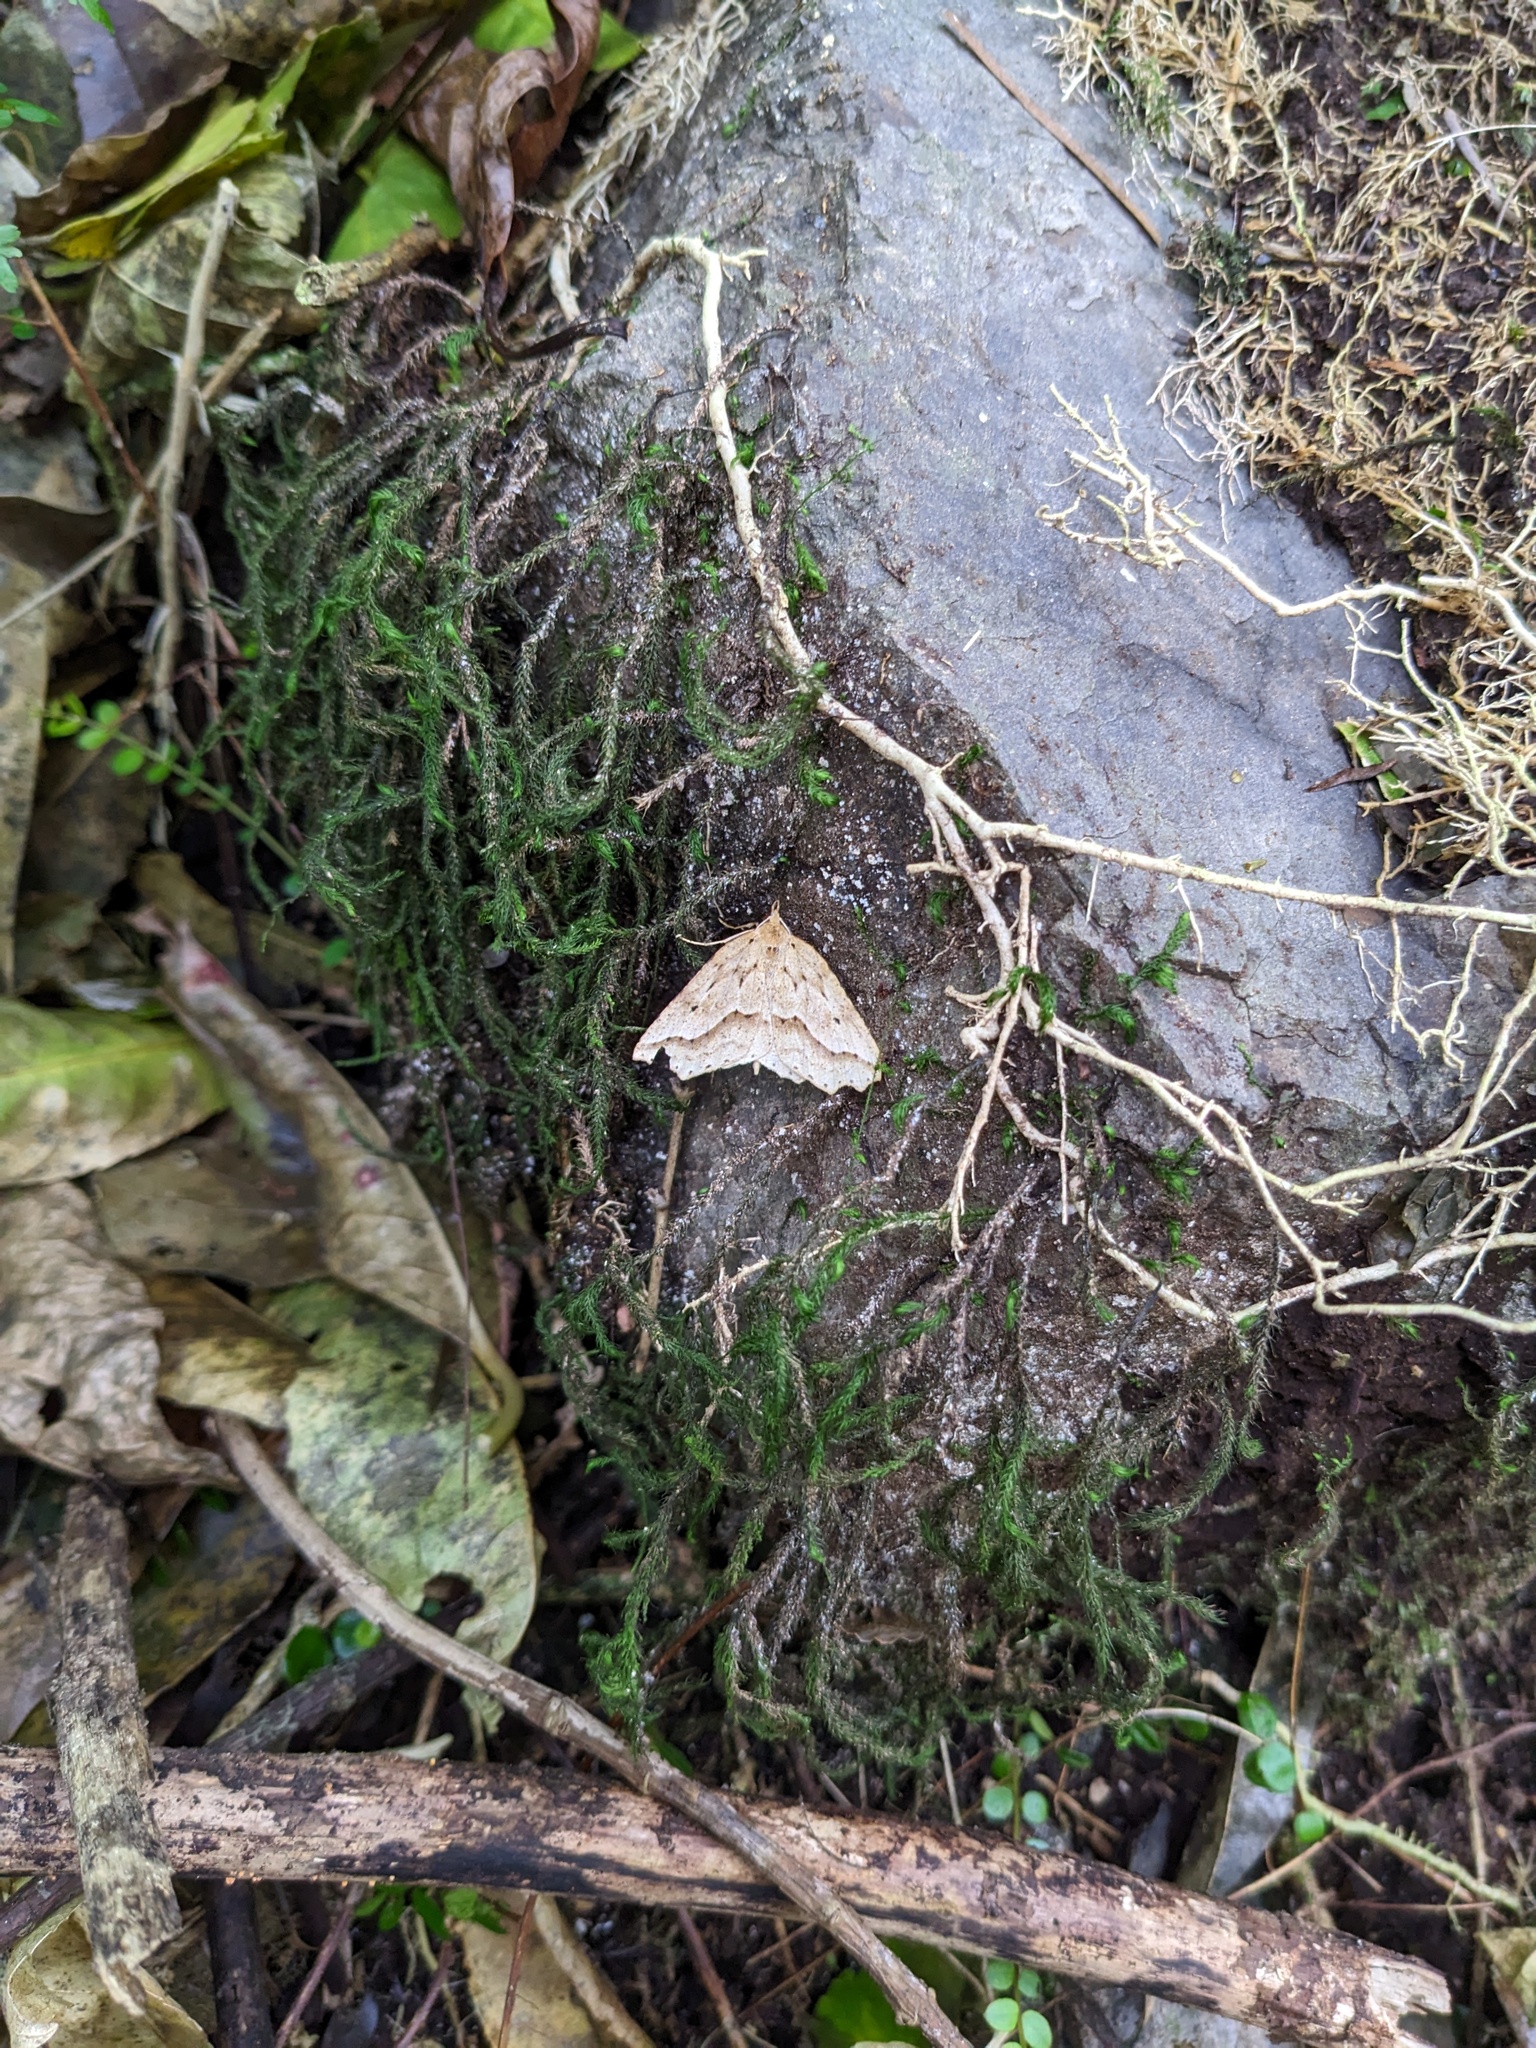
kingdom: Animalia
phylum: Arthropoda
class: Insecta
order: Lepidoptera
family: Geometridae
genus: Ischalis
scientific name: Ischalis variabilis
